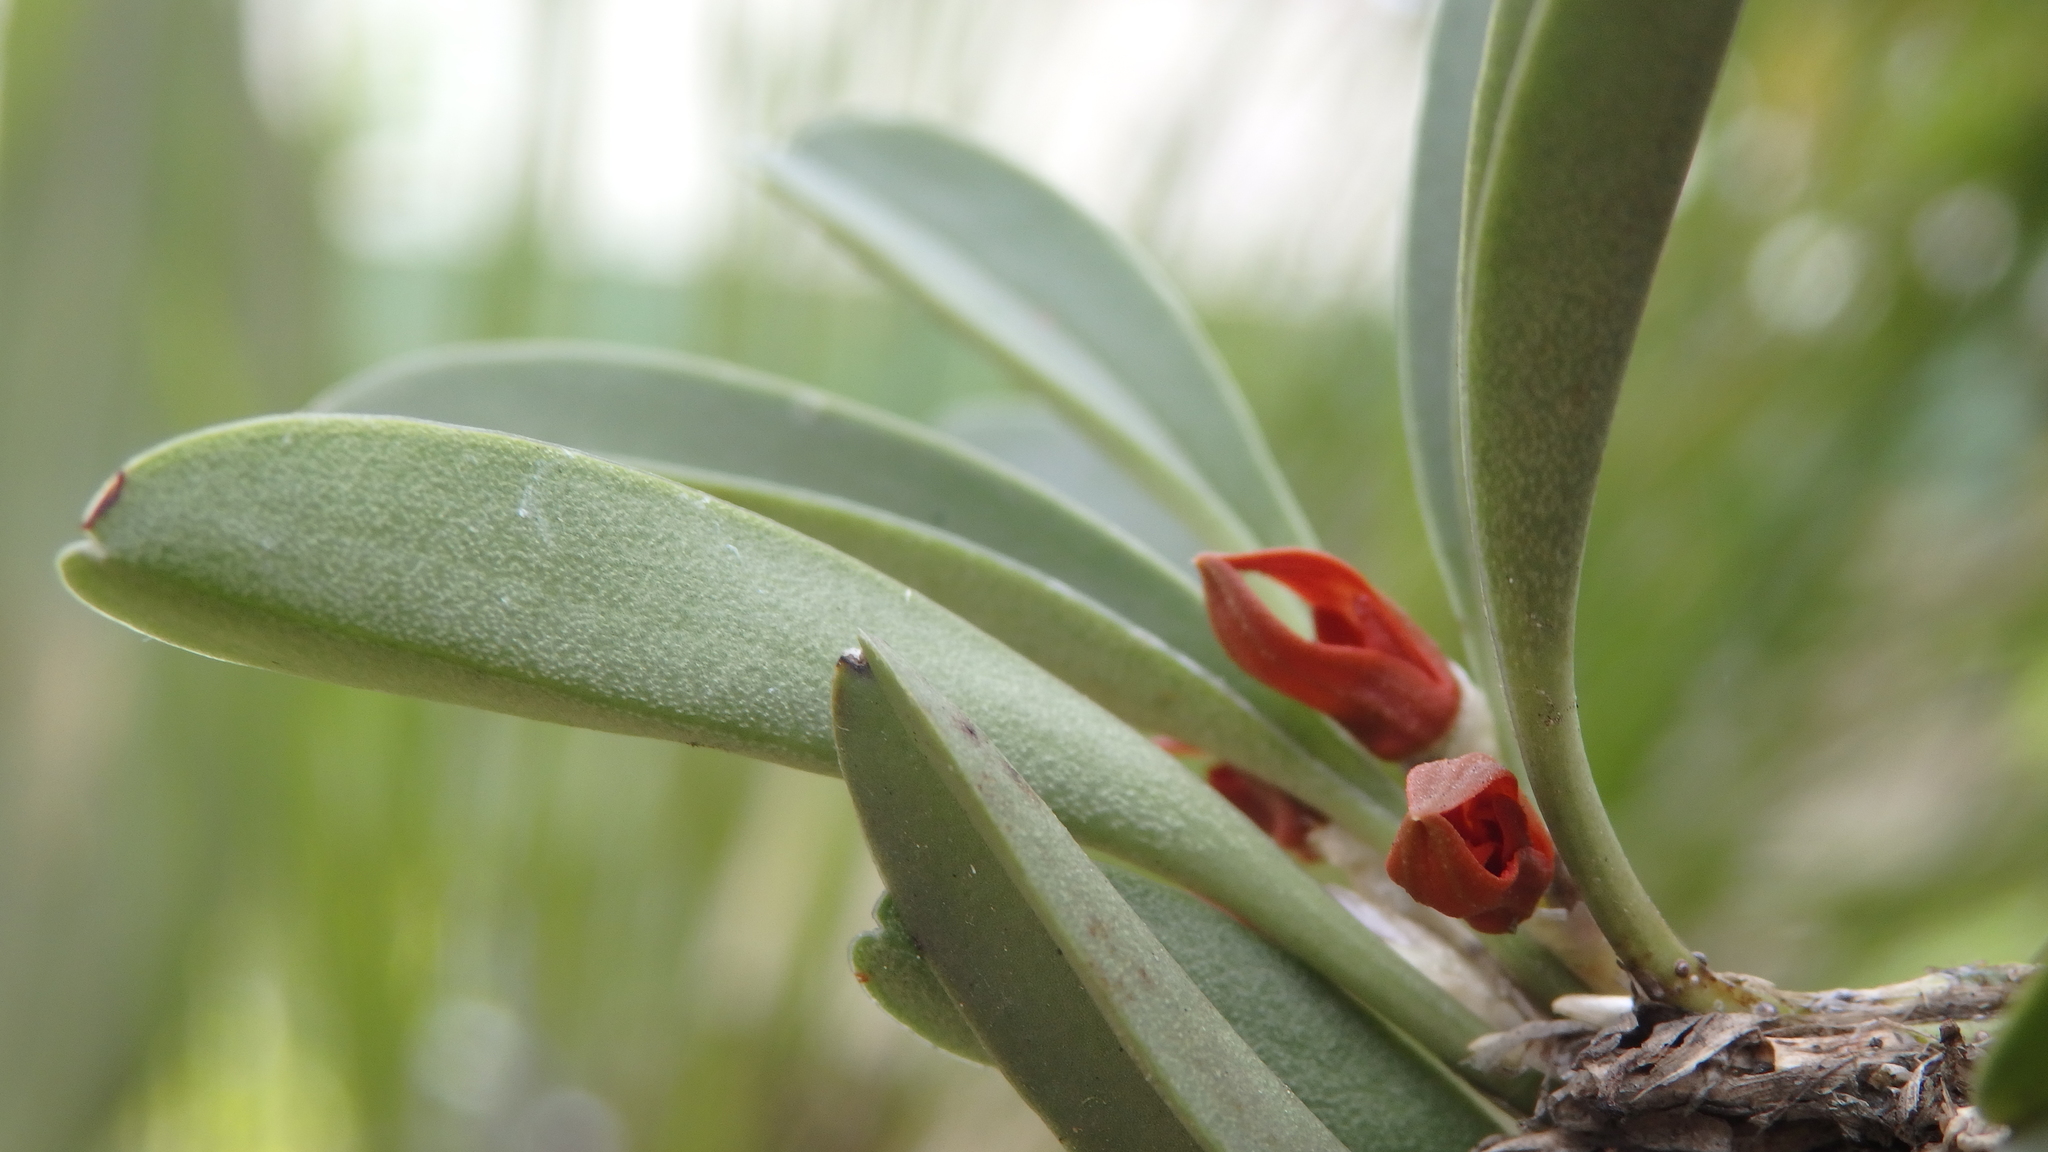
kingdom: Plantae
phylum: Tracheophyta
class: Liliopsida
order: Asparagales
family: Orchidaceae
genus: Specklinia
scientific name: Specklinia tribuloides
